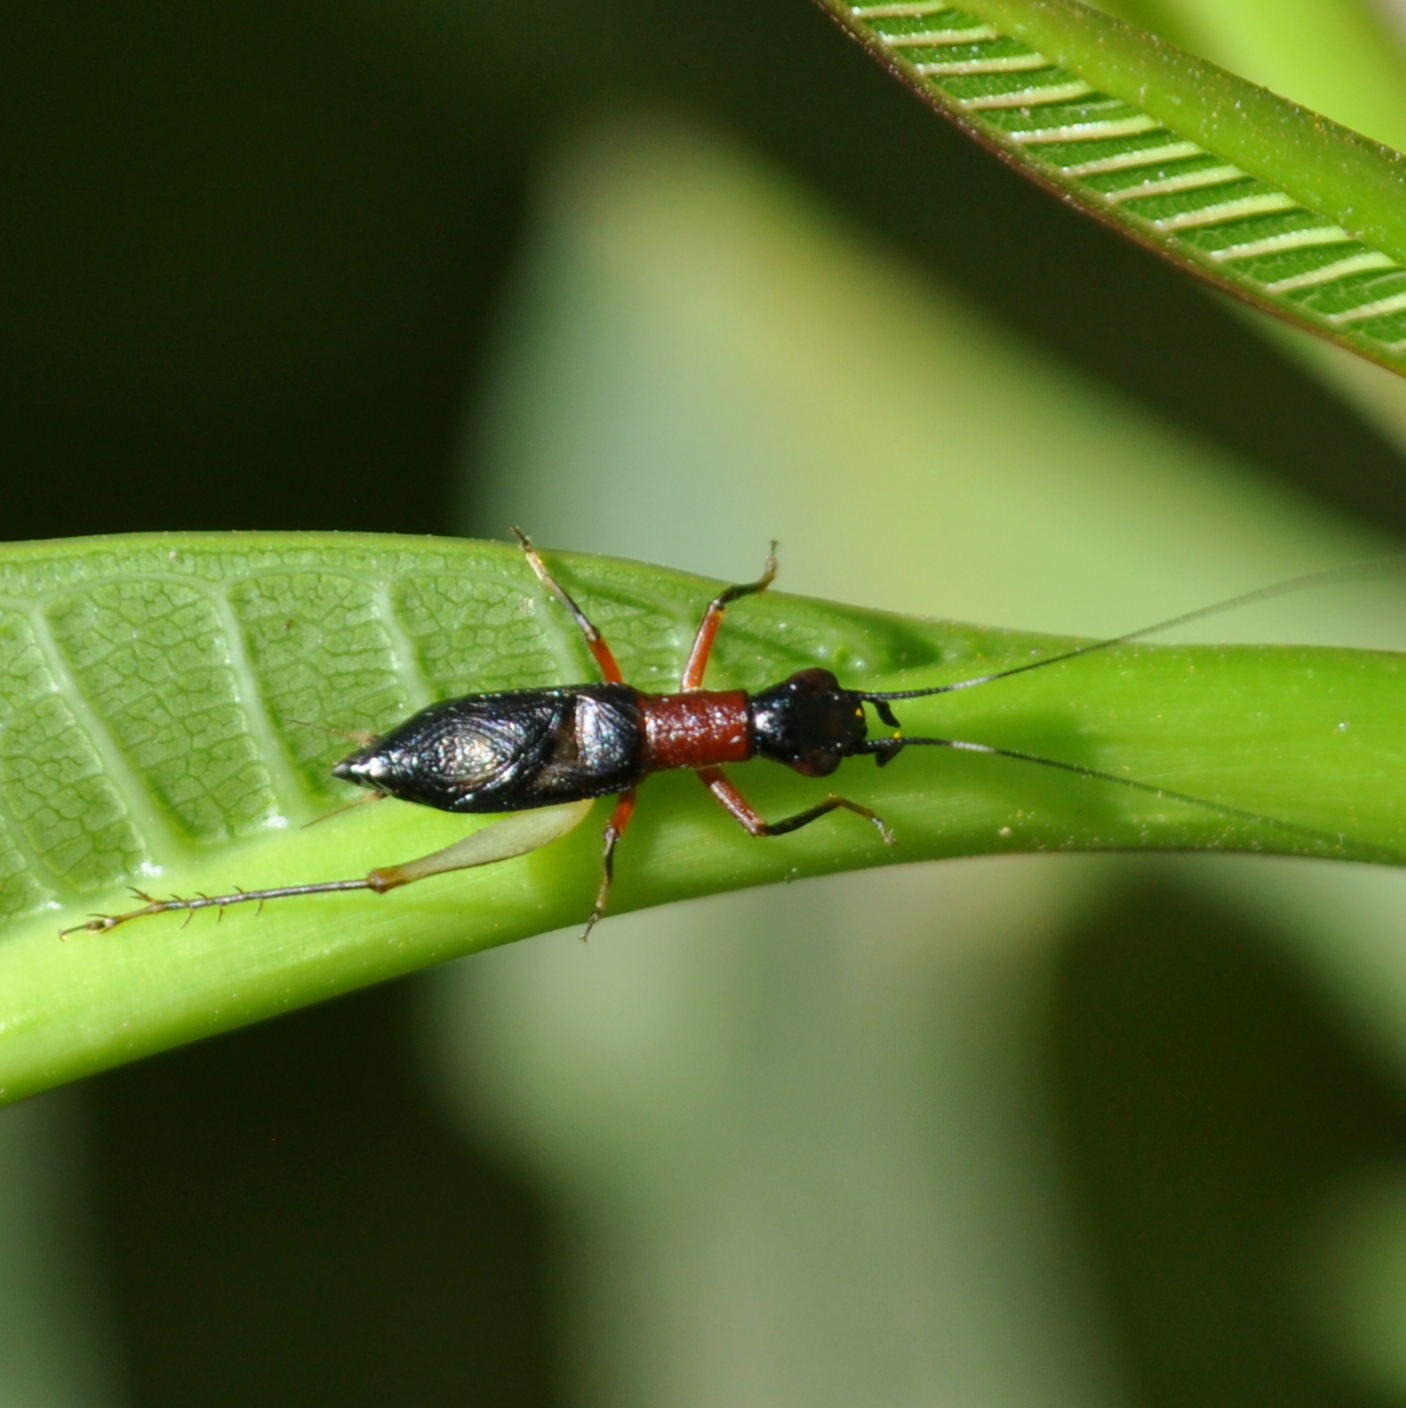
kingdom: Animalia
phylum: Arthropoda
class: Insecta
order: Orthoptera
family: Trigonidiidae
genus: Cranistus
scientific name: Cranistus colliurides
